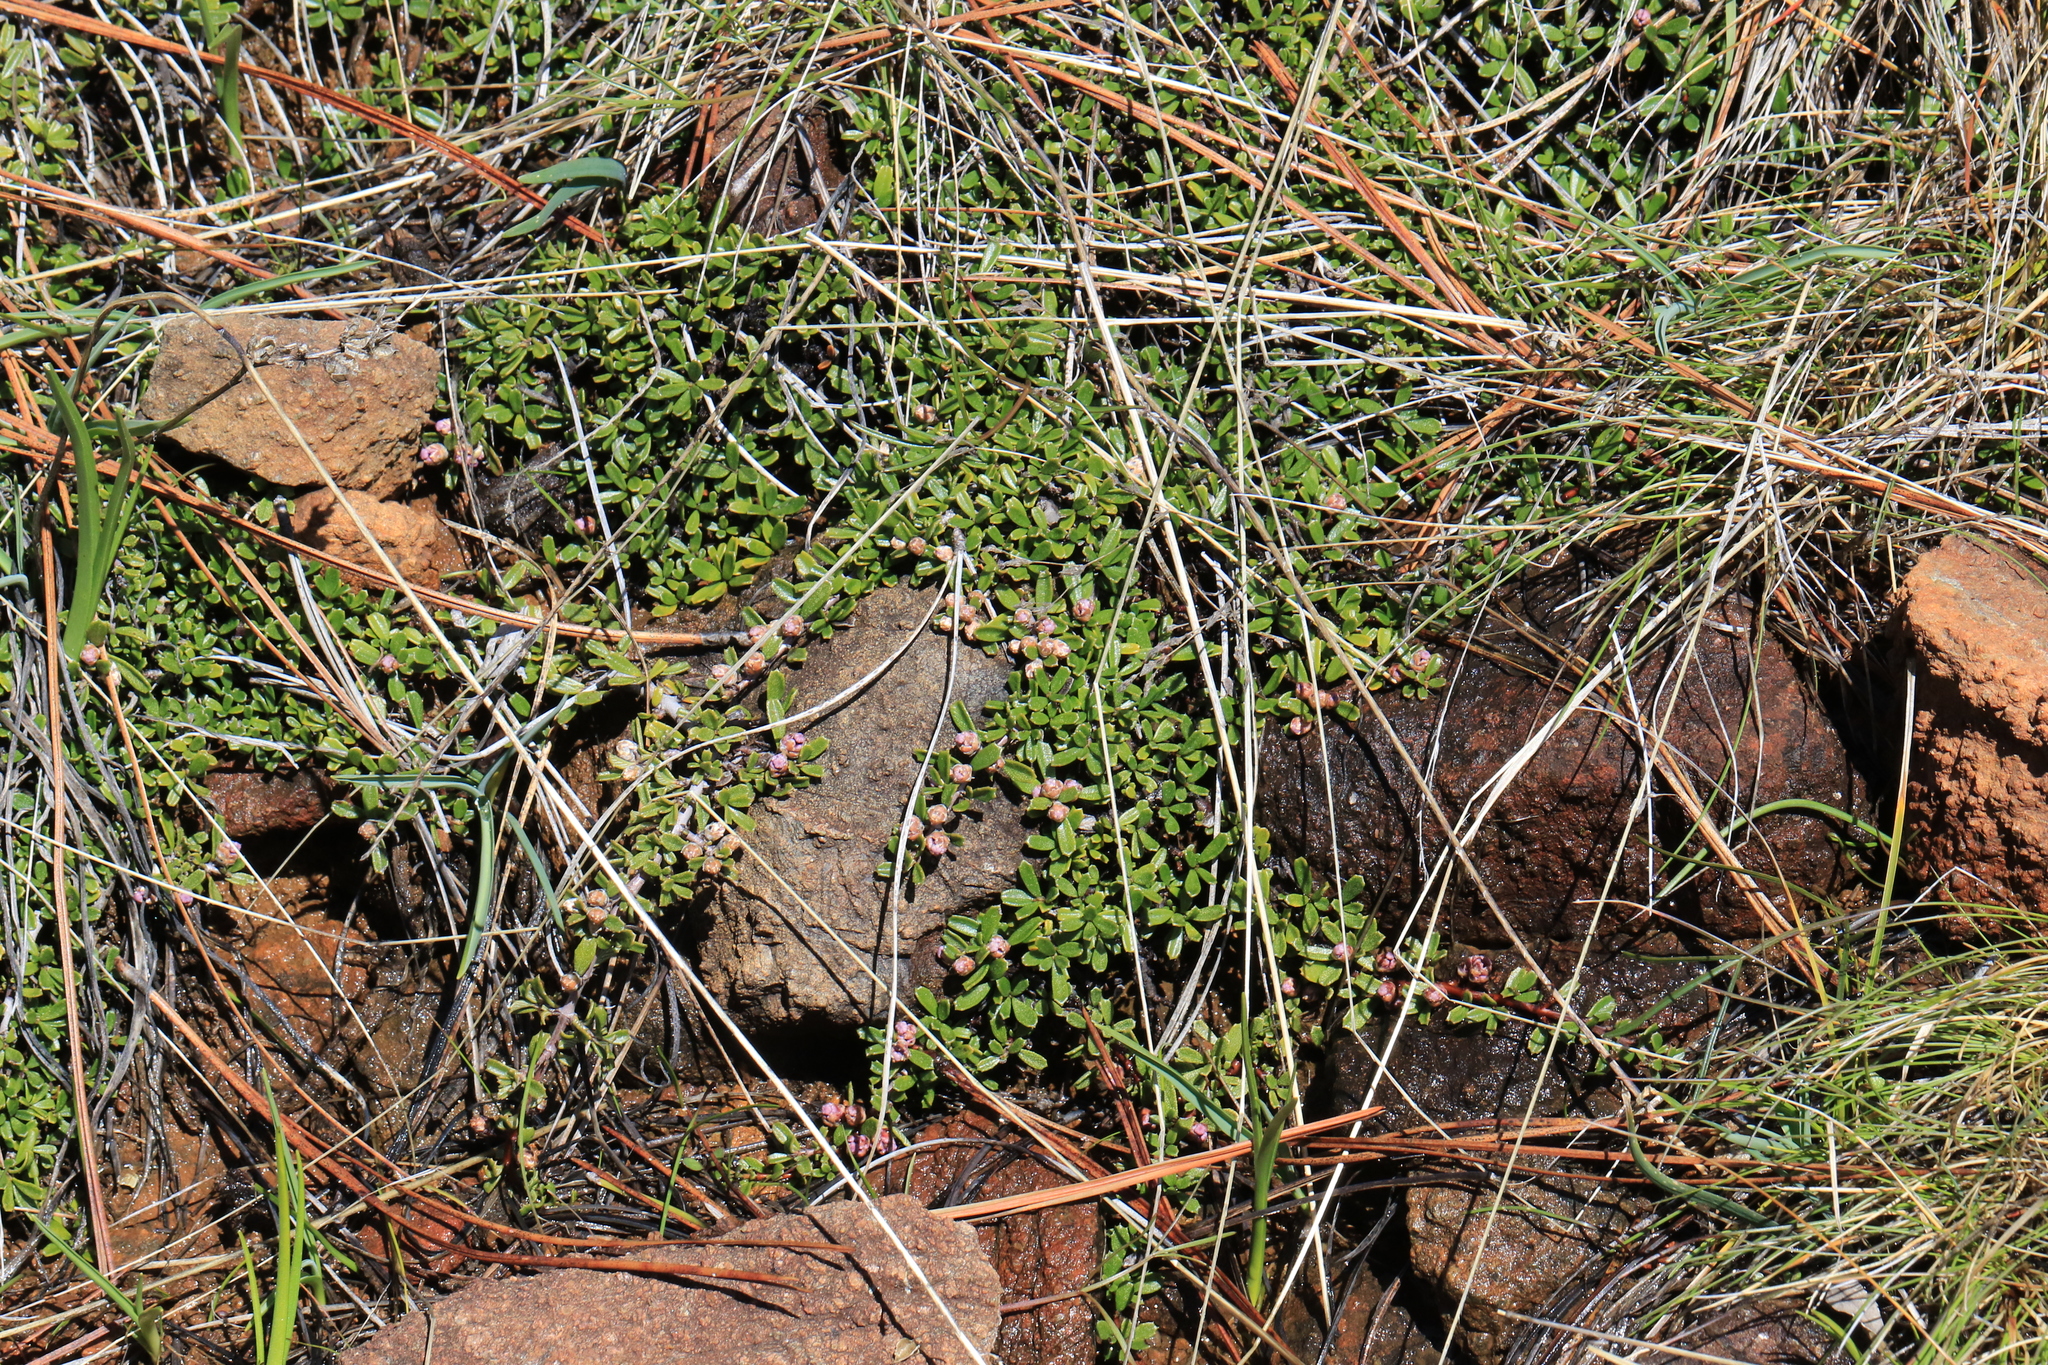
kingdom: Plantae
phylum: Tracheophyta
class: Magnoliopsida
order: Rosales
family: Rhamnaceae
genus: Ceanothus
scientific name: Ceanothus pumilus
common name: Siskiyou-mat
